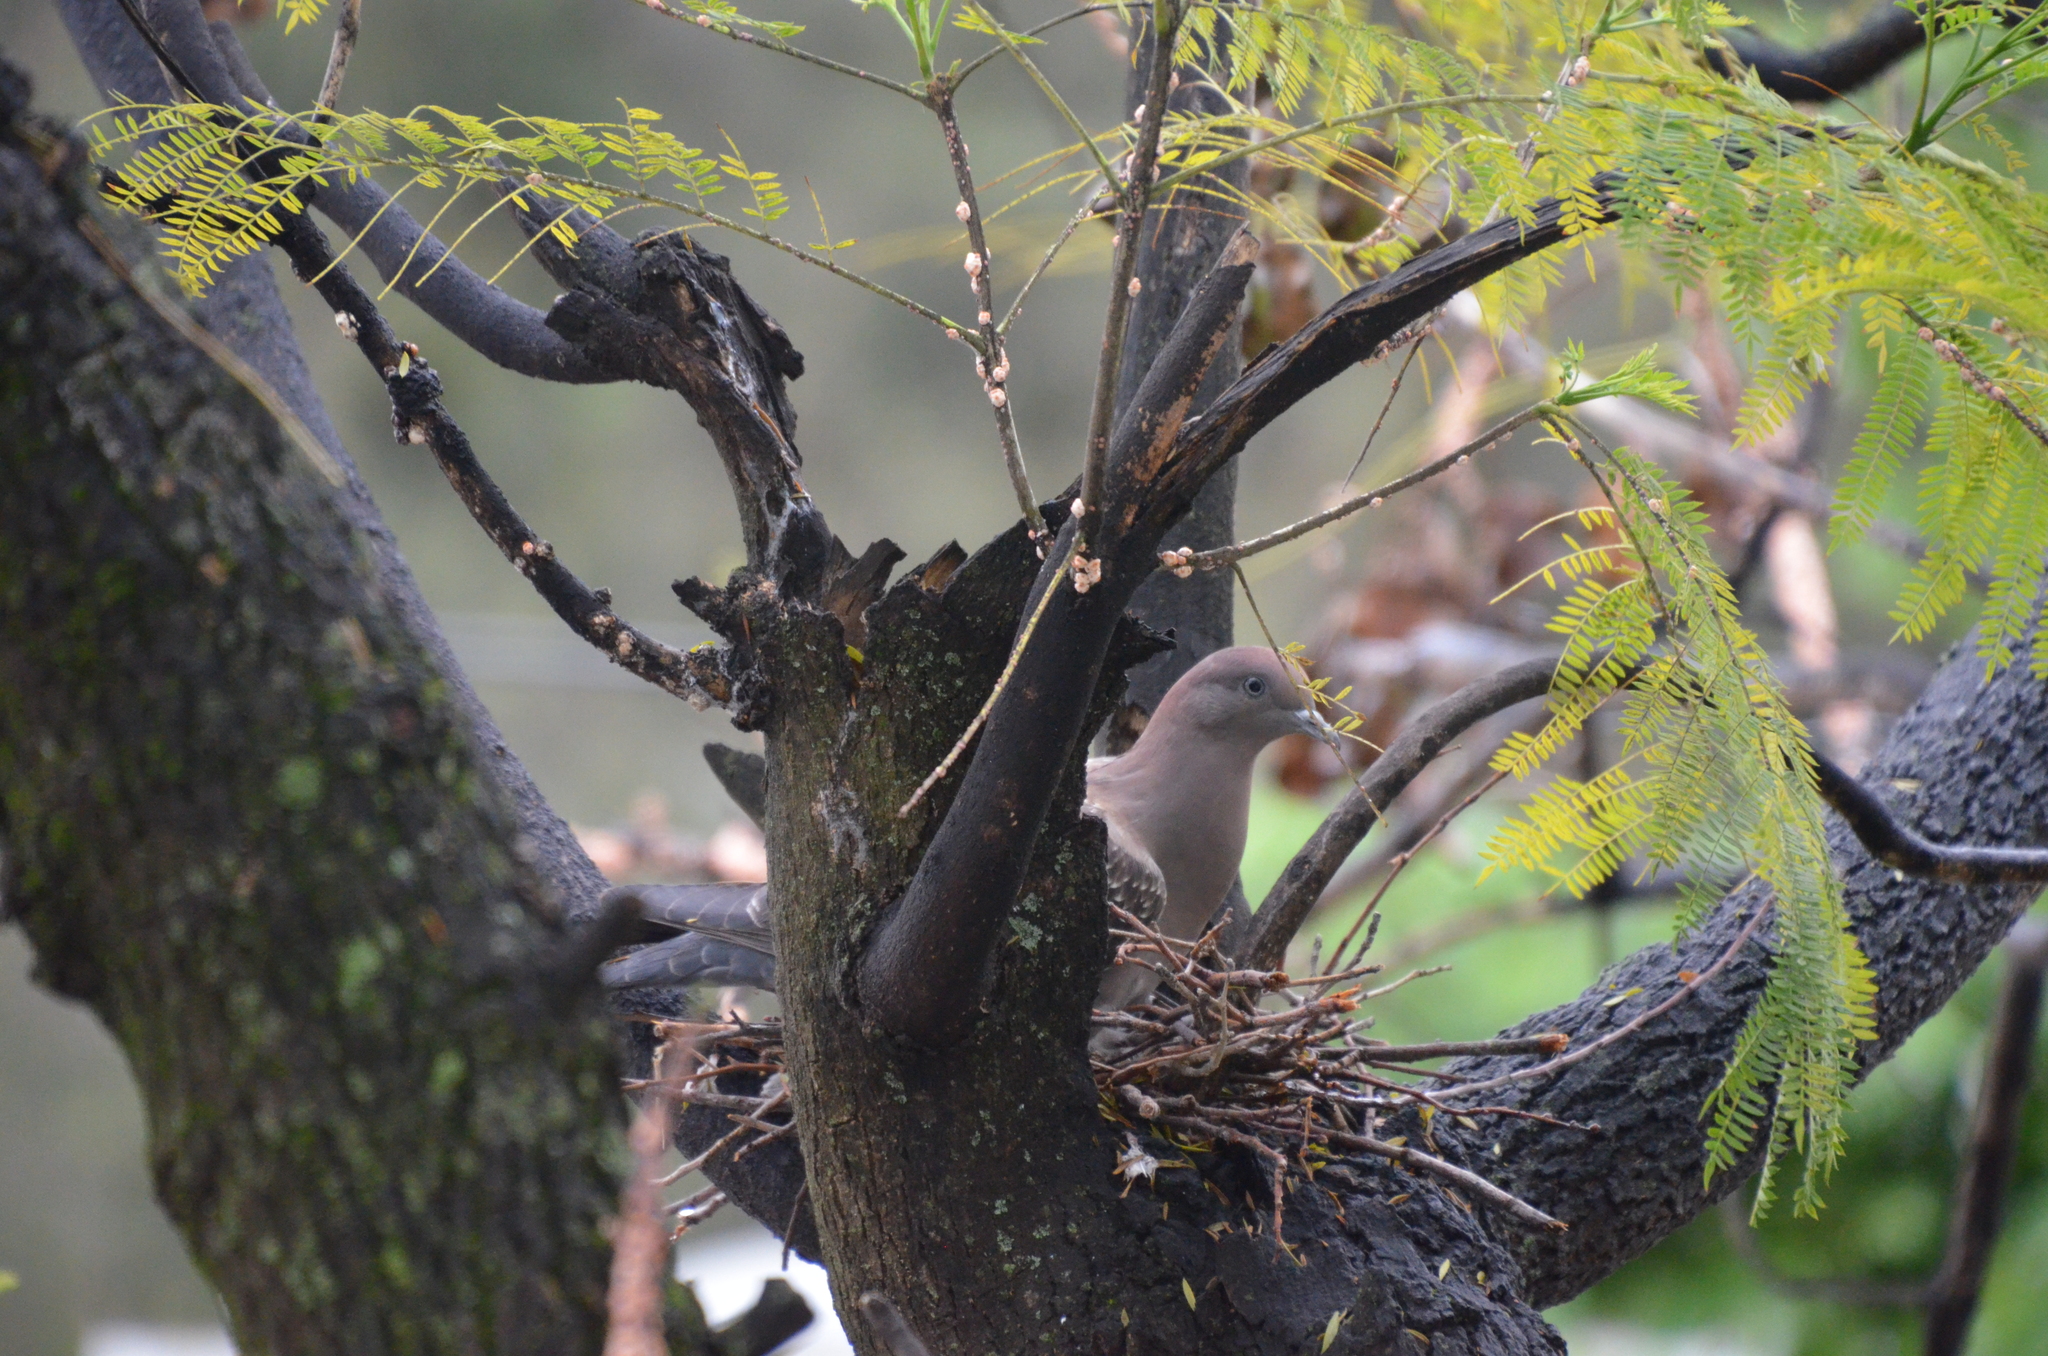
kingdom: Animalia
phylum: Chordata
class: Aves
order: Columbiformes
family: Columbidae
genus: Patagioenas
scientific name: Patagioenas maculosa
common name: Spot-winged pigeon
